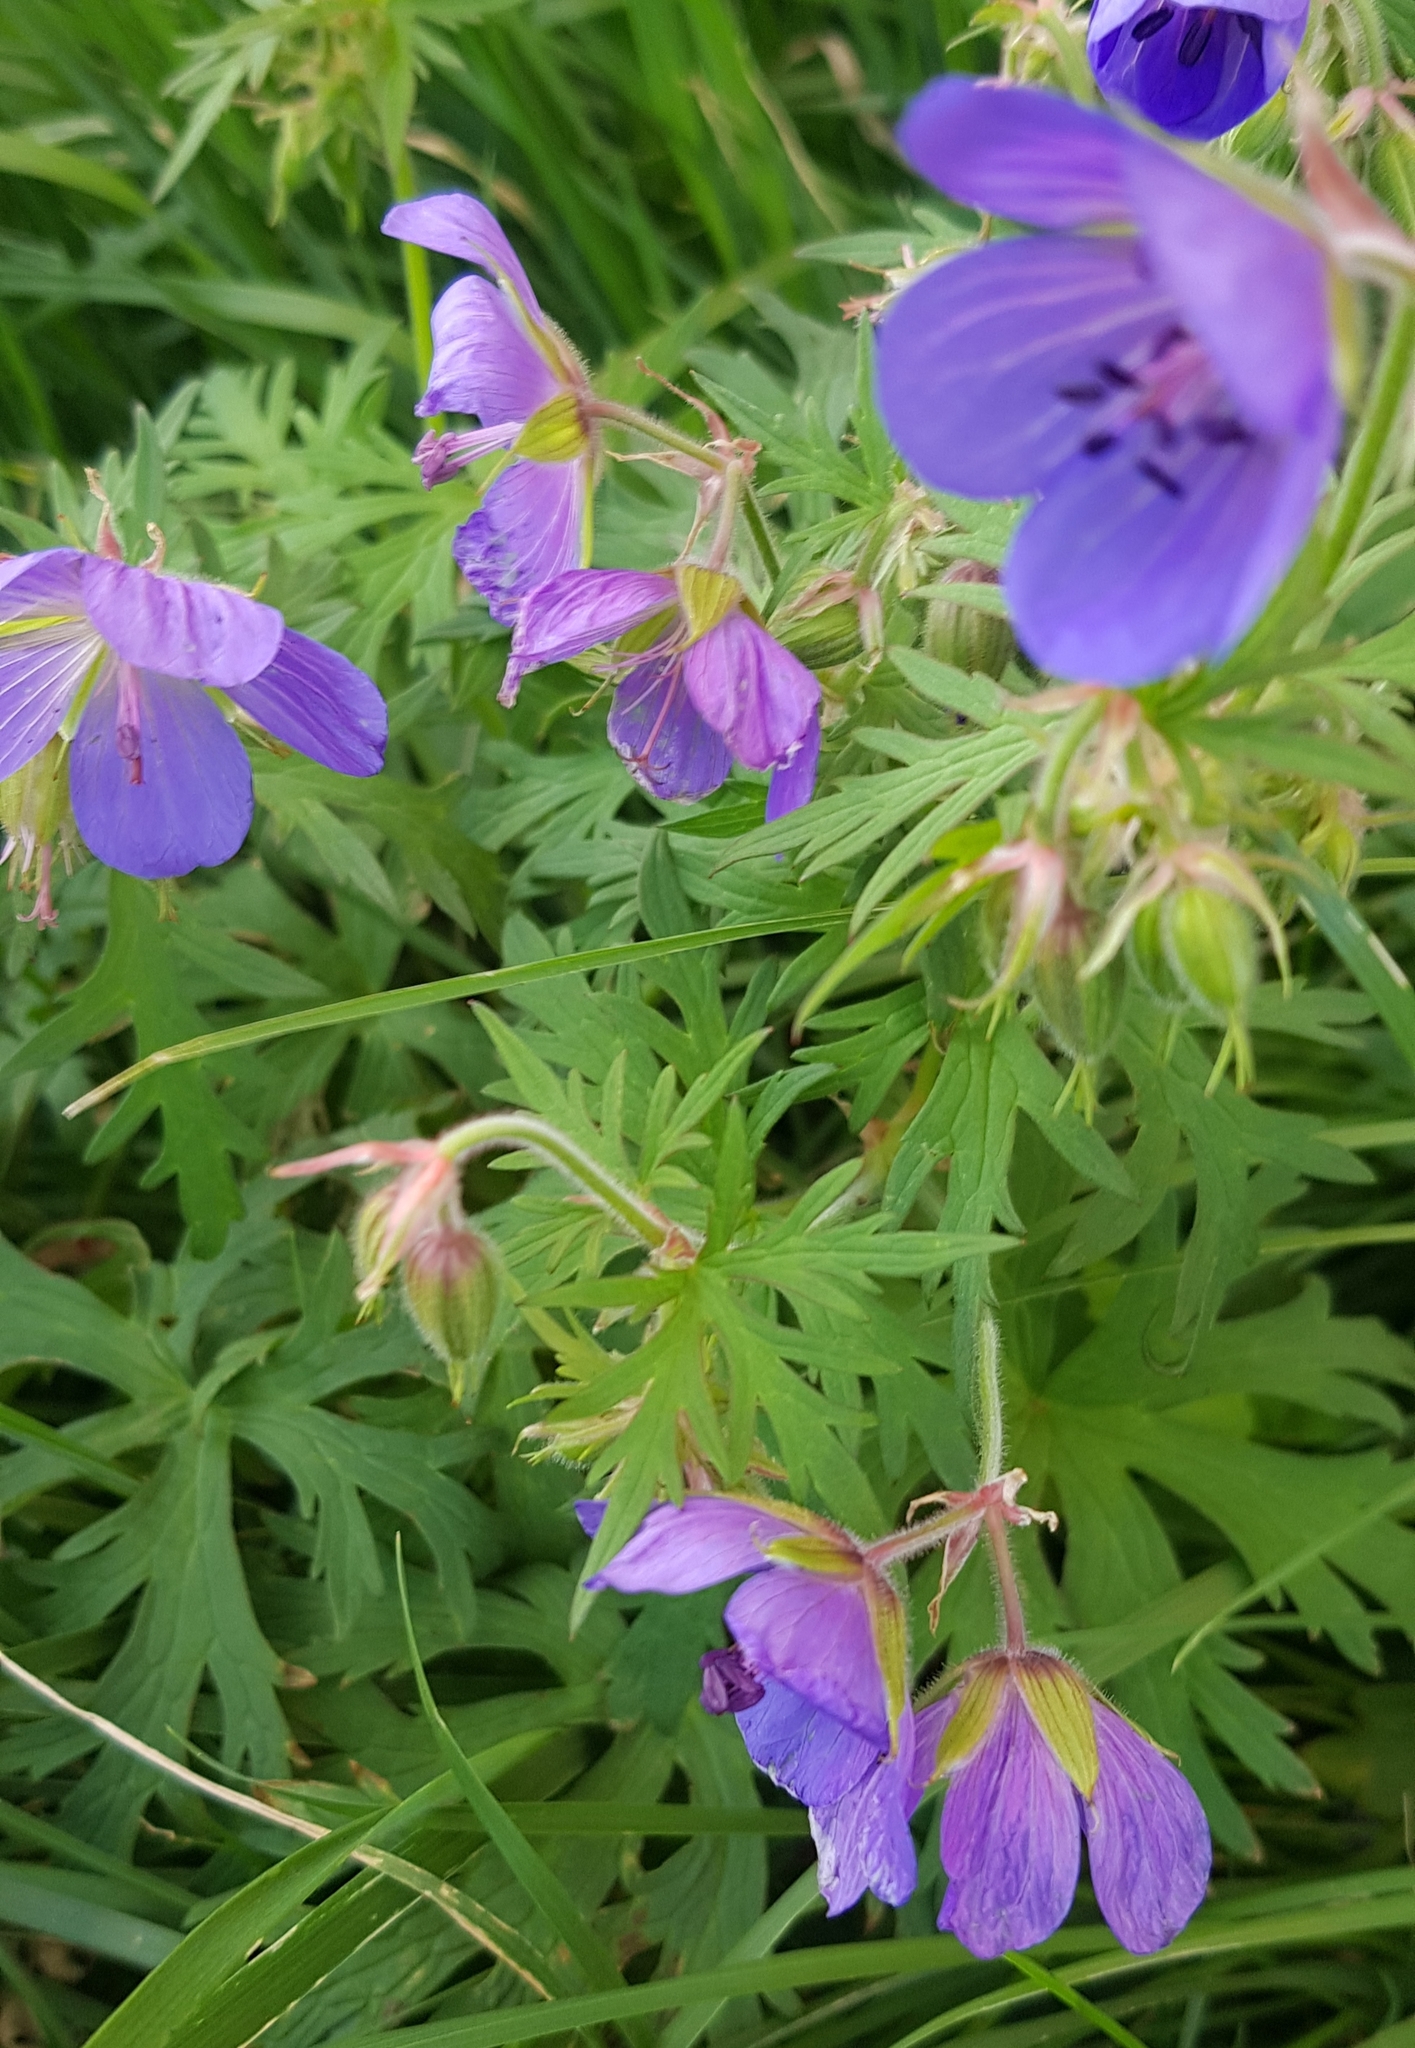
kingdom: Plantae
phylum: Tracheophyta
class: Magnoliopsida
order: Geraniales
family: Geraniaceae
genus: Geranium
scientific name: Geranium pratense
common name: Meadow crane's-bill
